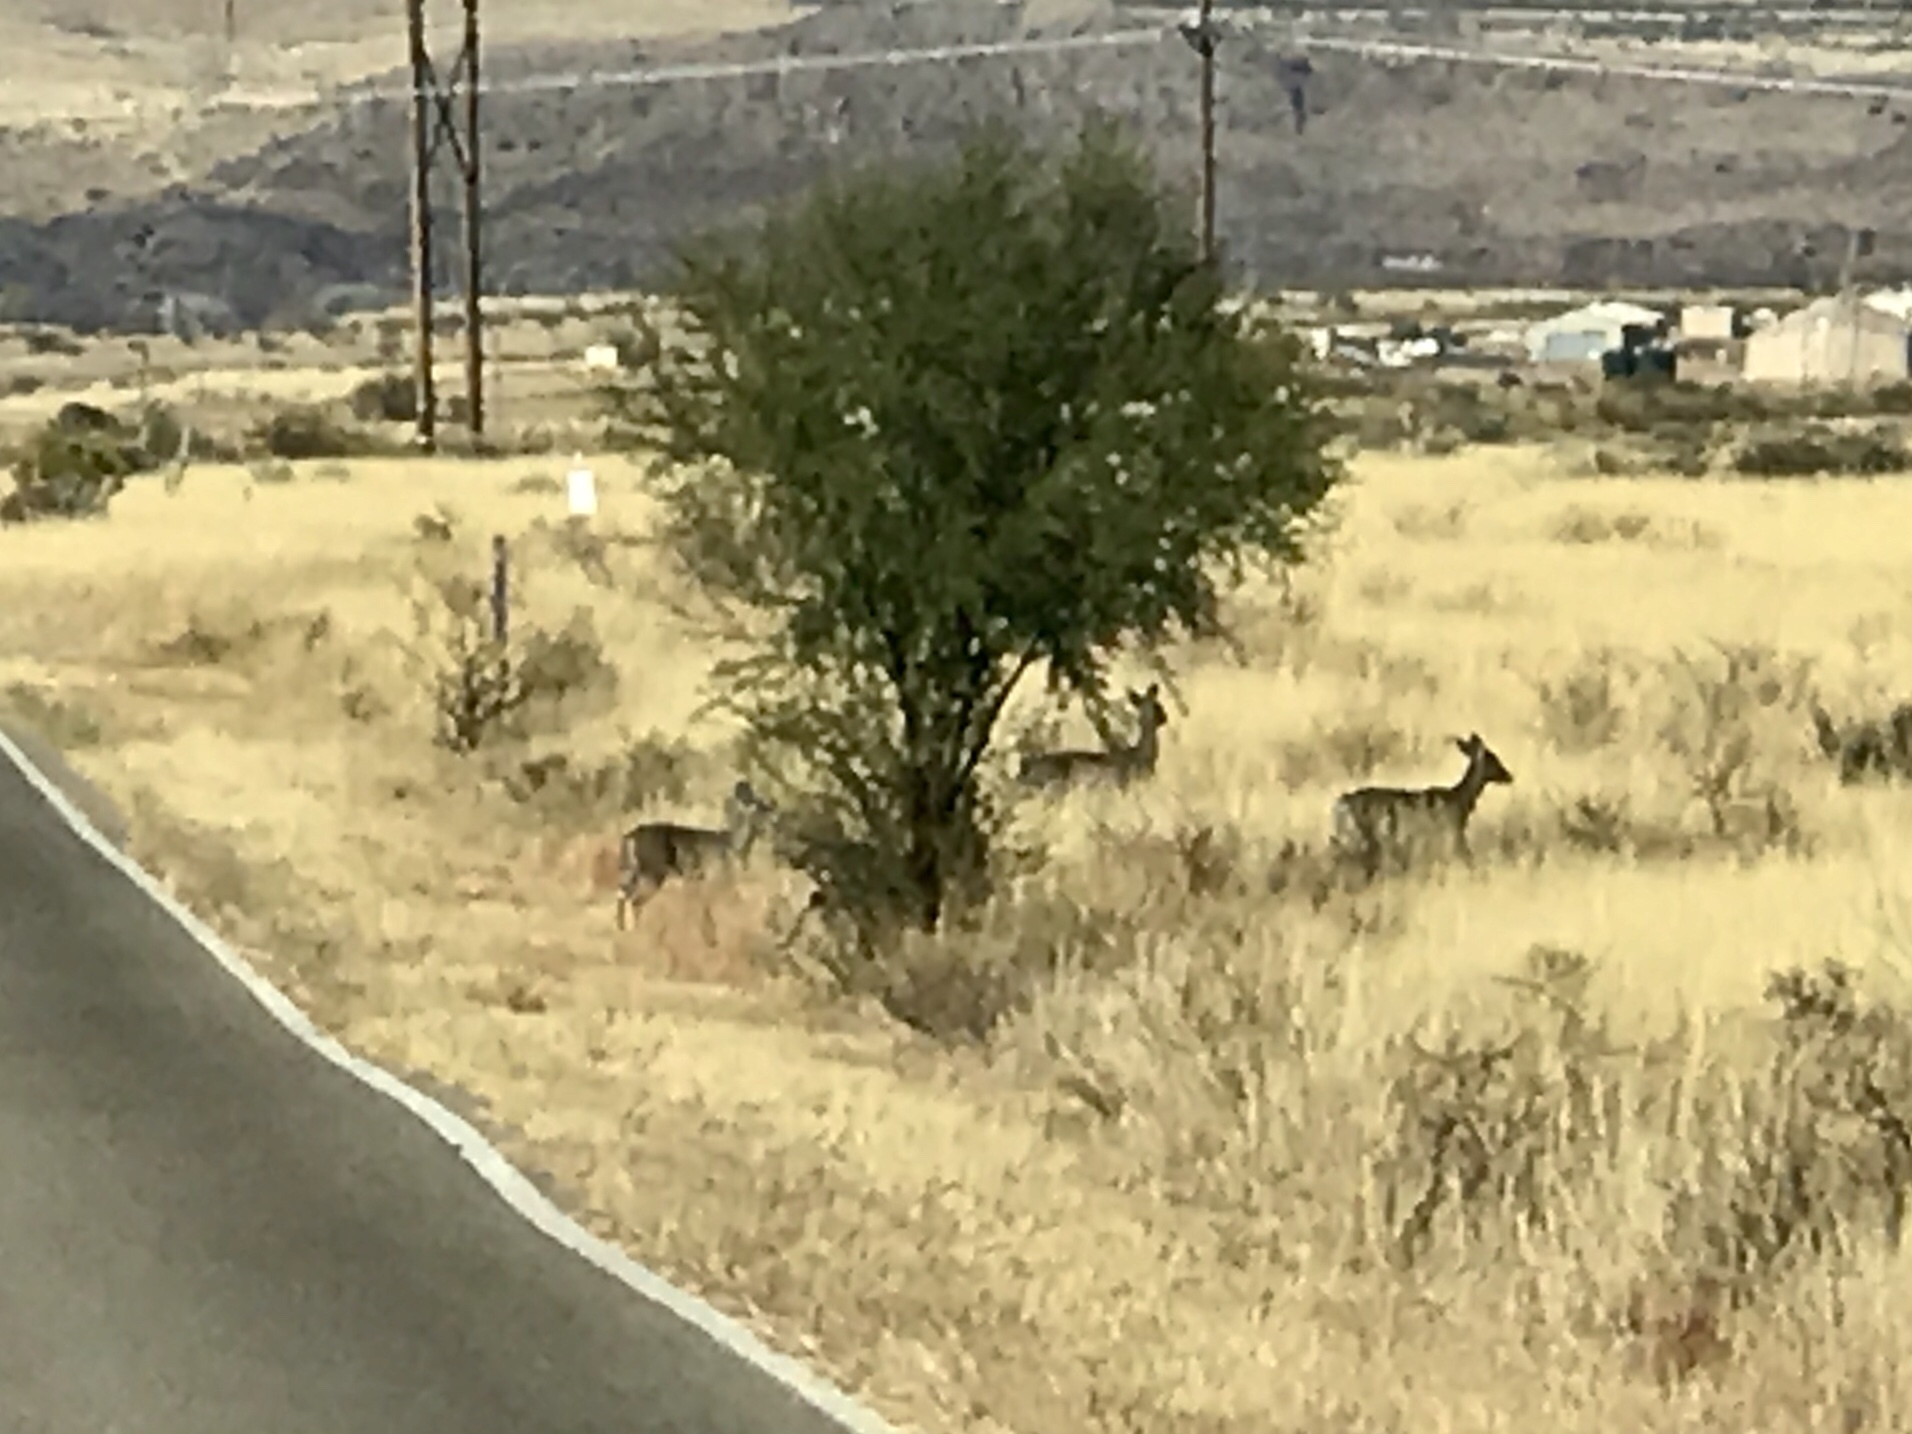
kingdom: Animalia
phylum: Chordata
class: Mammalia
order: Artiodactyla
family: Cervidae
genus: Odocoileus
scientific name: Odocoileus virginianus
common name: White-tailed deer
